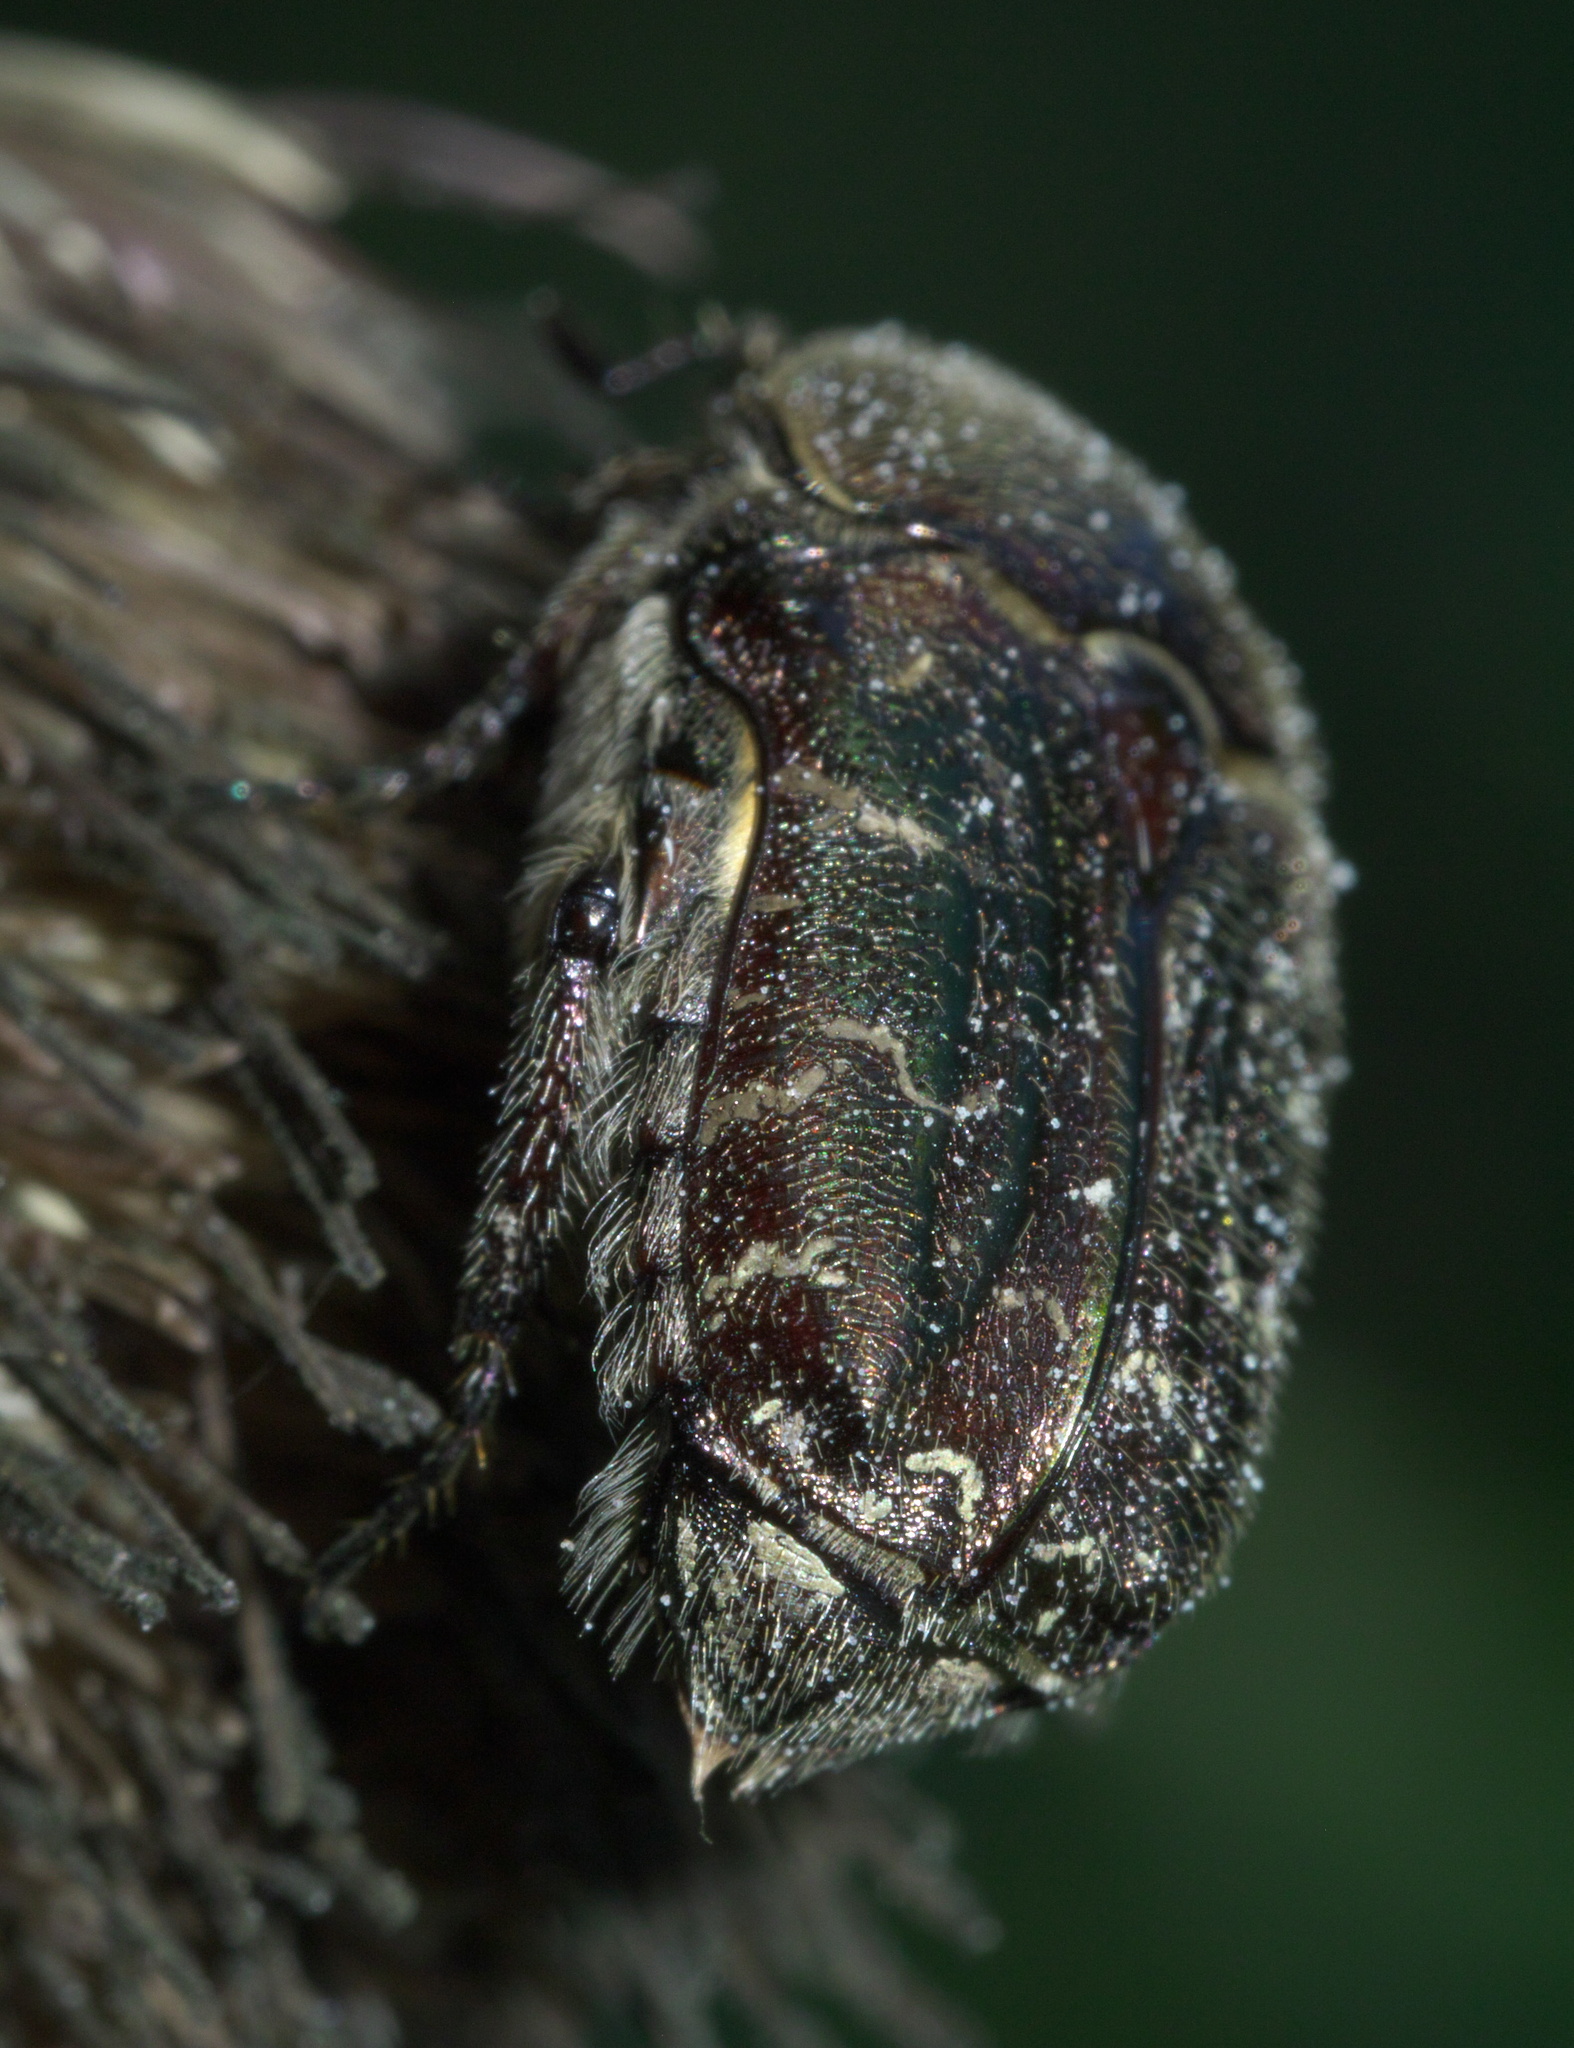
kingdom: Animalia
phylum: Arthropoda
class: Insecta
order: Coleoptera
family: Scarabaeidae
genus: Euphoria
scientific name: Euphoria sepulcralis
